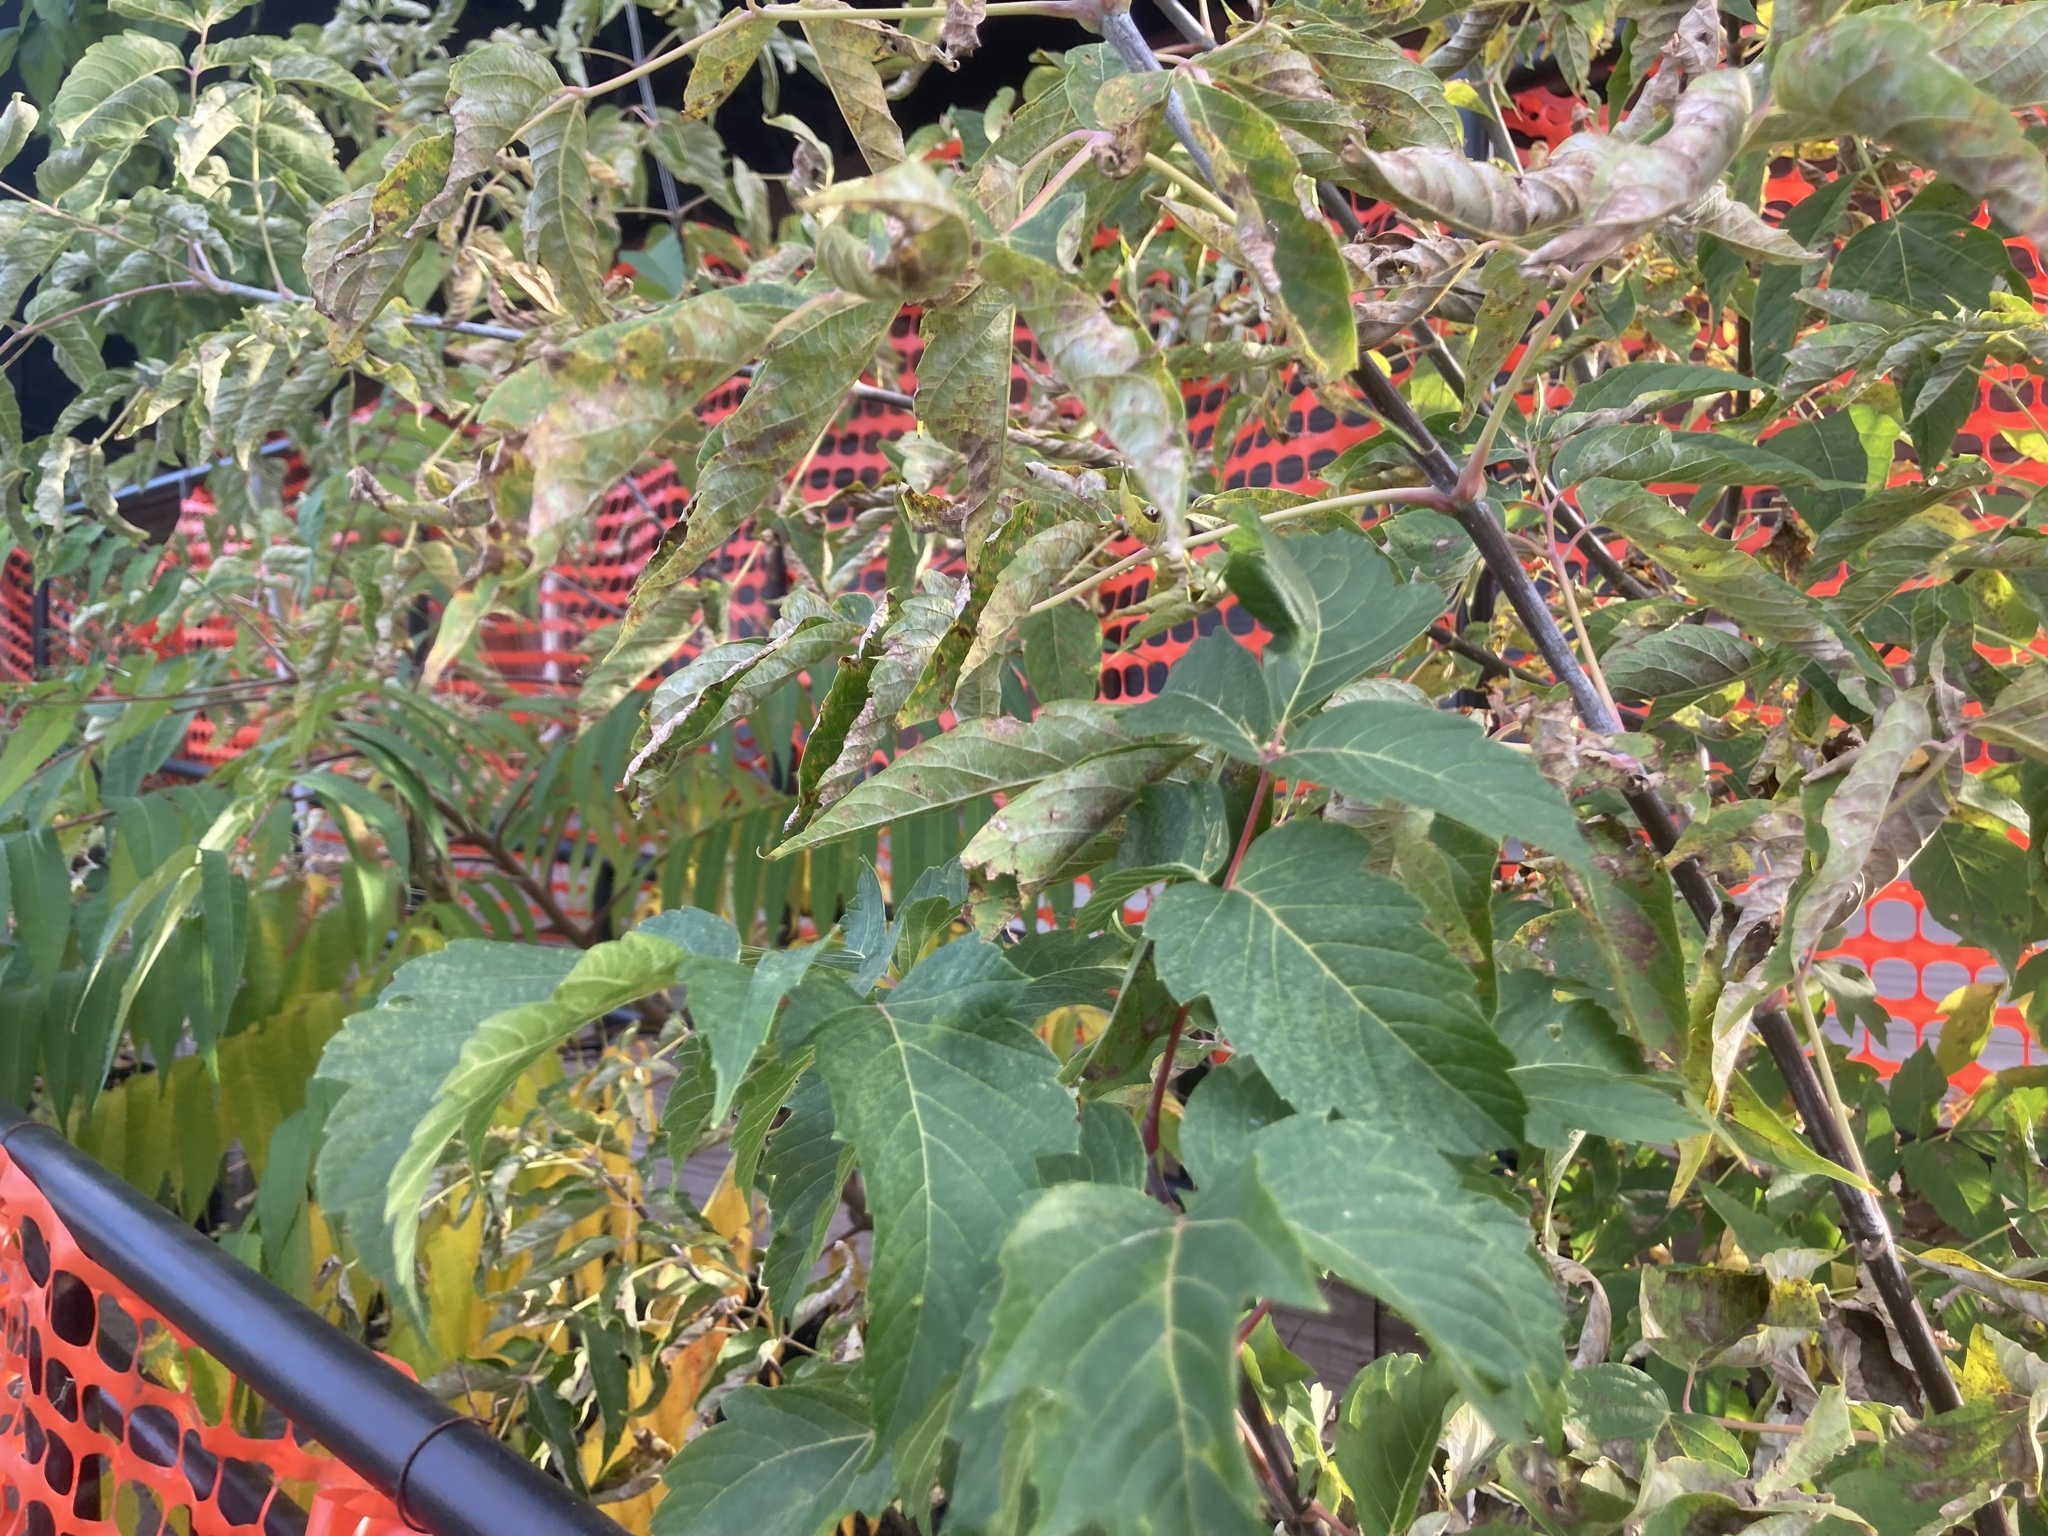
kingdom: Plantae
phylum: Tracheophyta
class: Magnoliopsida
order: Sapindales
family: Sapindaceae
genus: Acer
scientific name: Acer negundo
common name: Ashleaf maple
